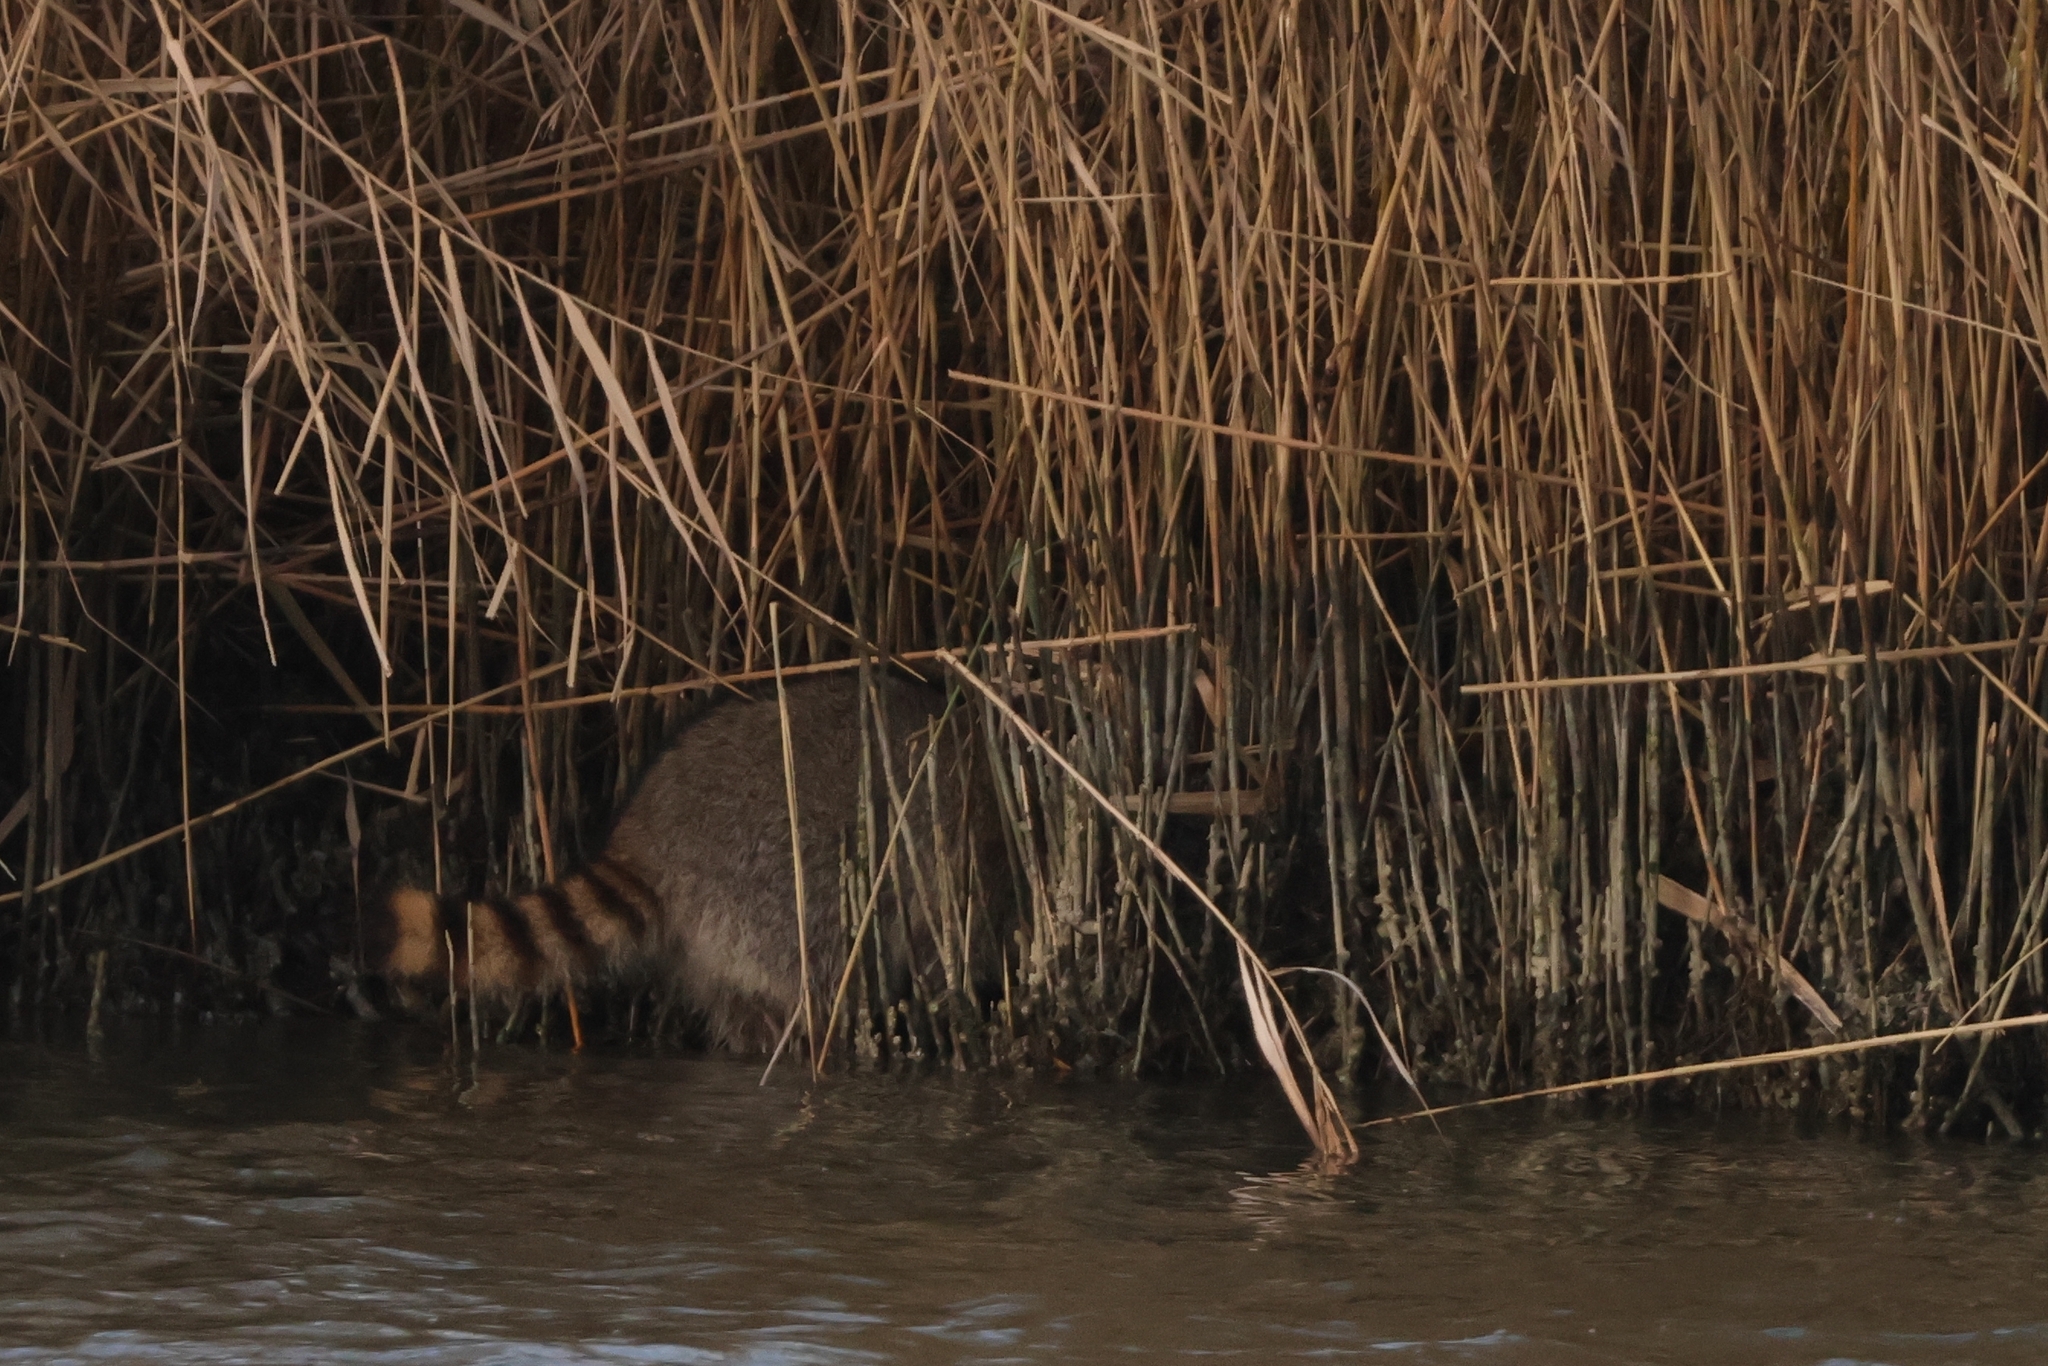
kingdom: Animalia
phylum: Chordata
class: Mammalia
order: Carnivora
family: Procyonidae
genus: Procyon
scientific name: Procyon lotor
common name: Raccoon
